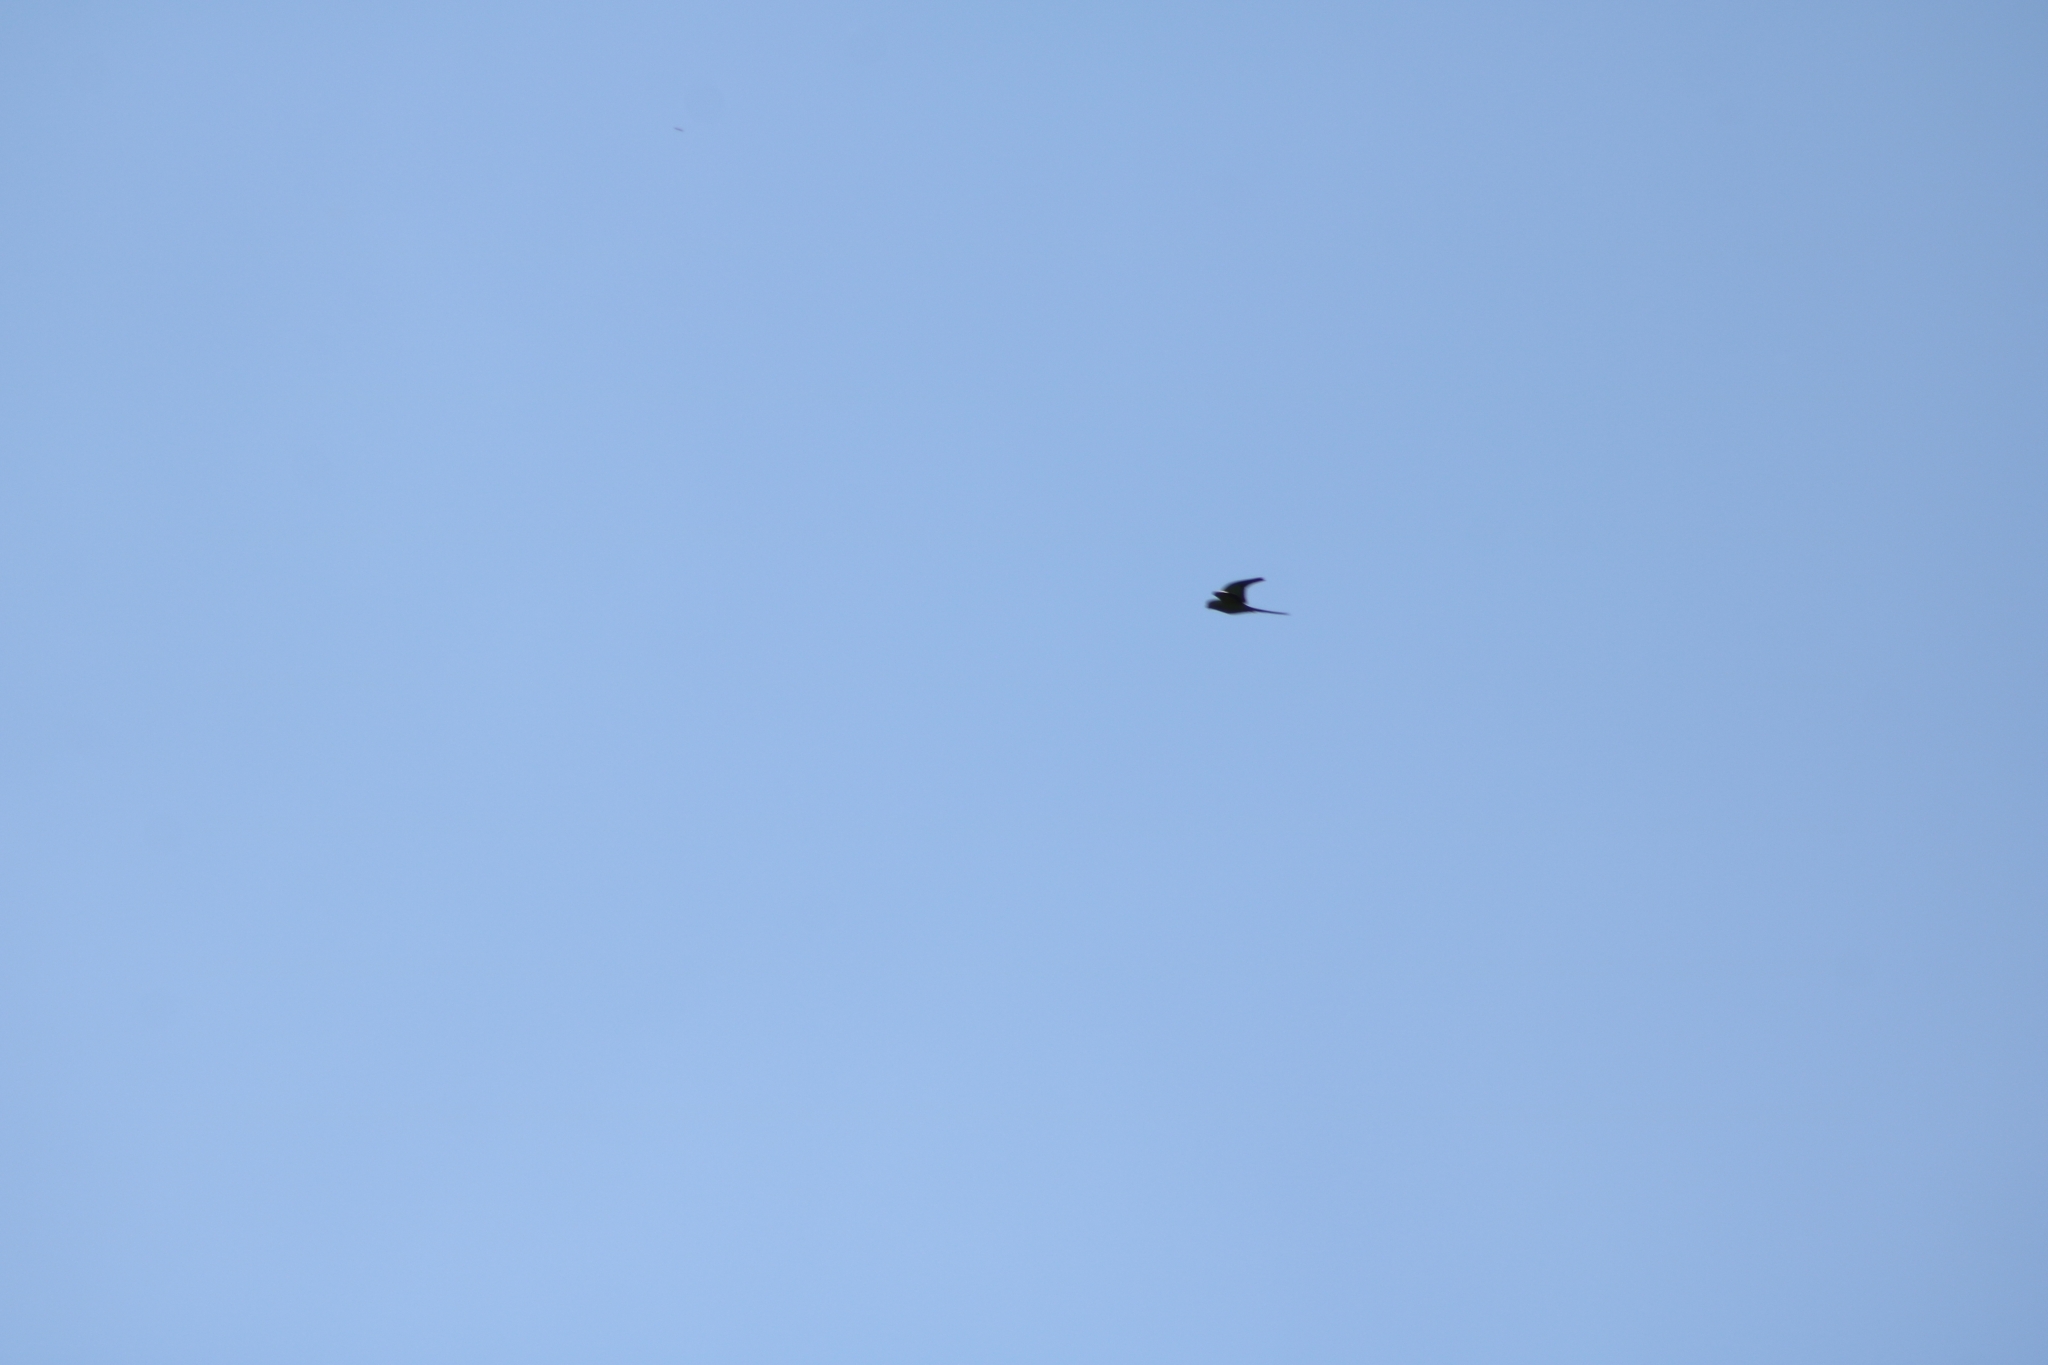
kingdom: Animalia
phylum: Chordata
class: Aves
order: Psittaciformes
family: Psittacidae
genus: Psittacula
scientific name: Psittacula krameri
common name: Rose-ringed parakeet
